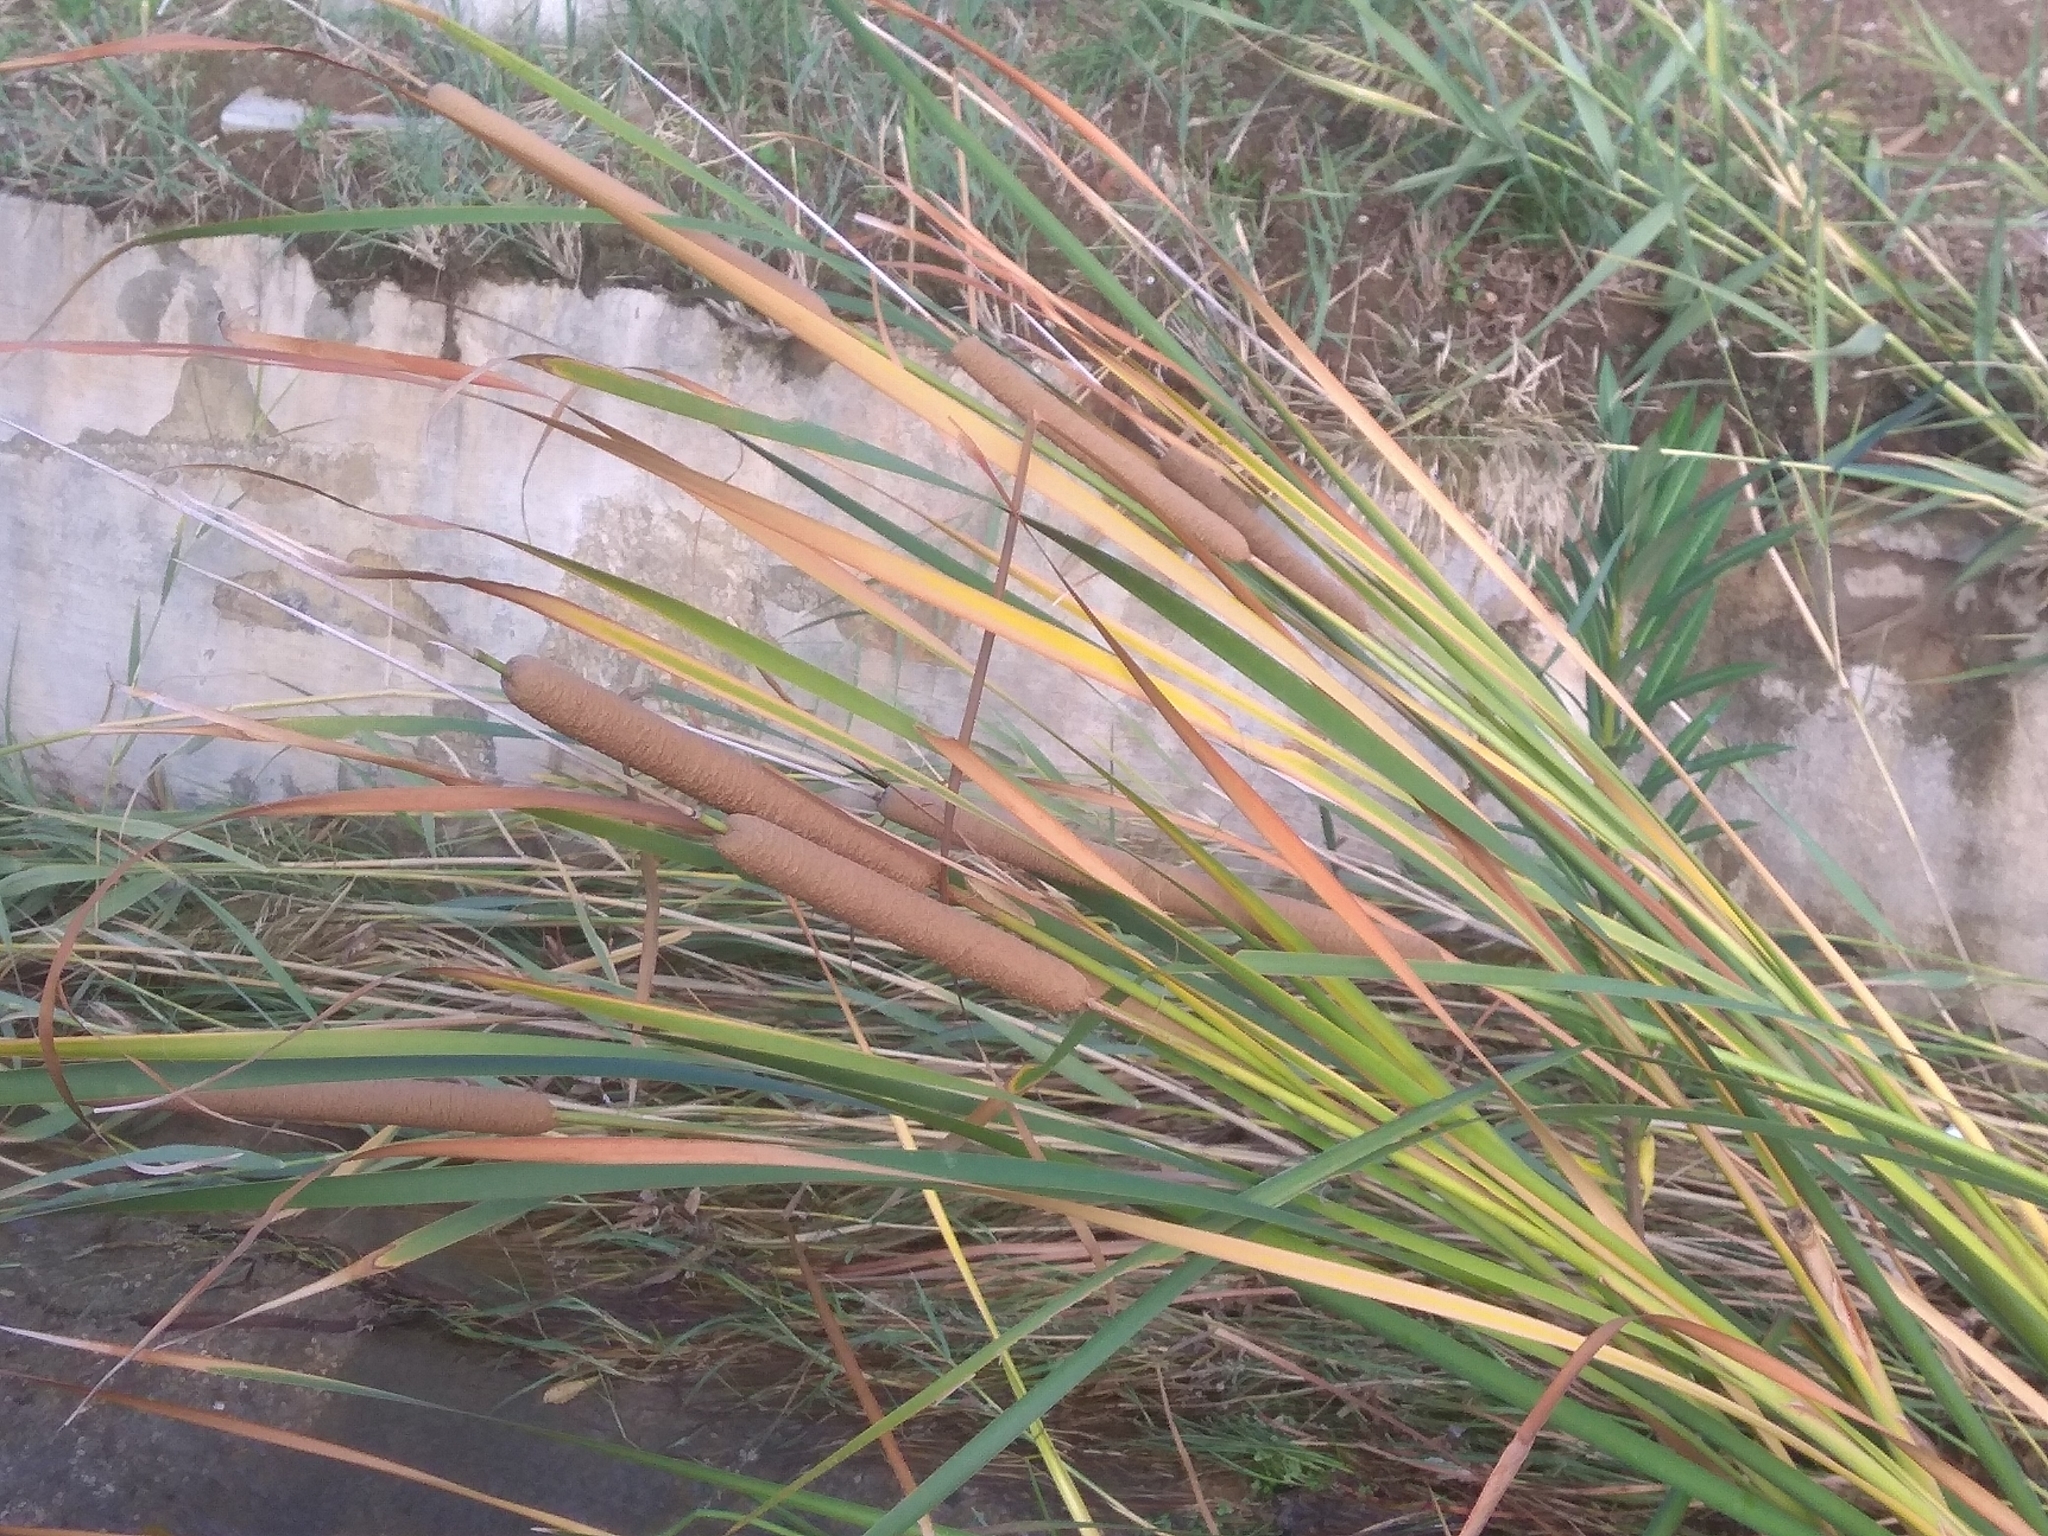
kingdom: Plantae
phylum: Tracheophyta
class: Liliopsida
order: Poales
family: Typhaceae
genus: Typha
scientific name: Typha domingensis
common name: Southern cattail
